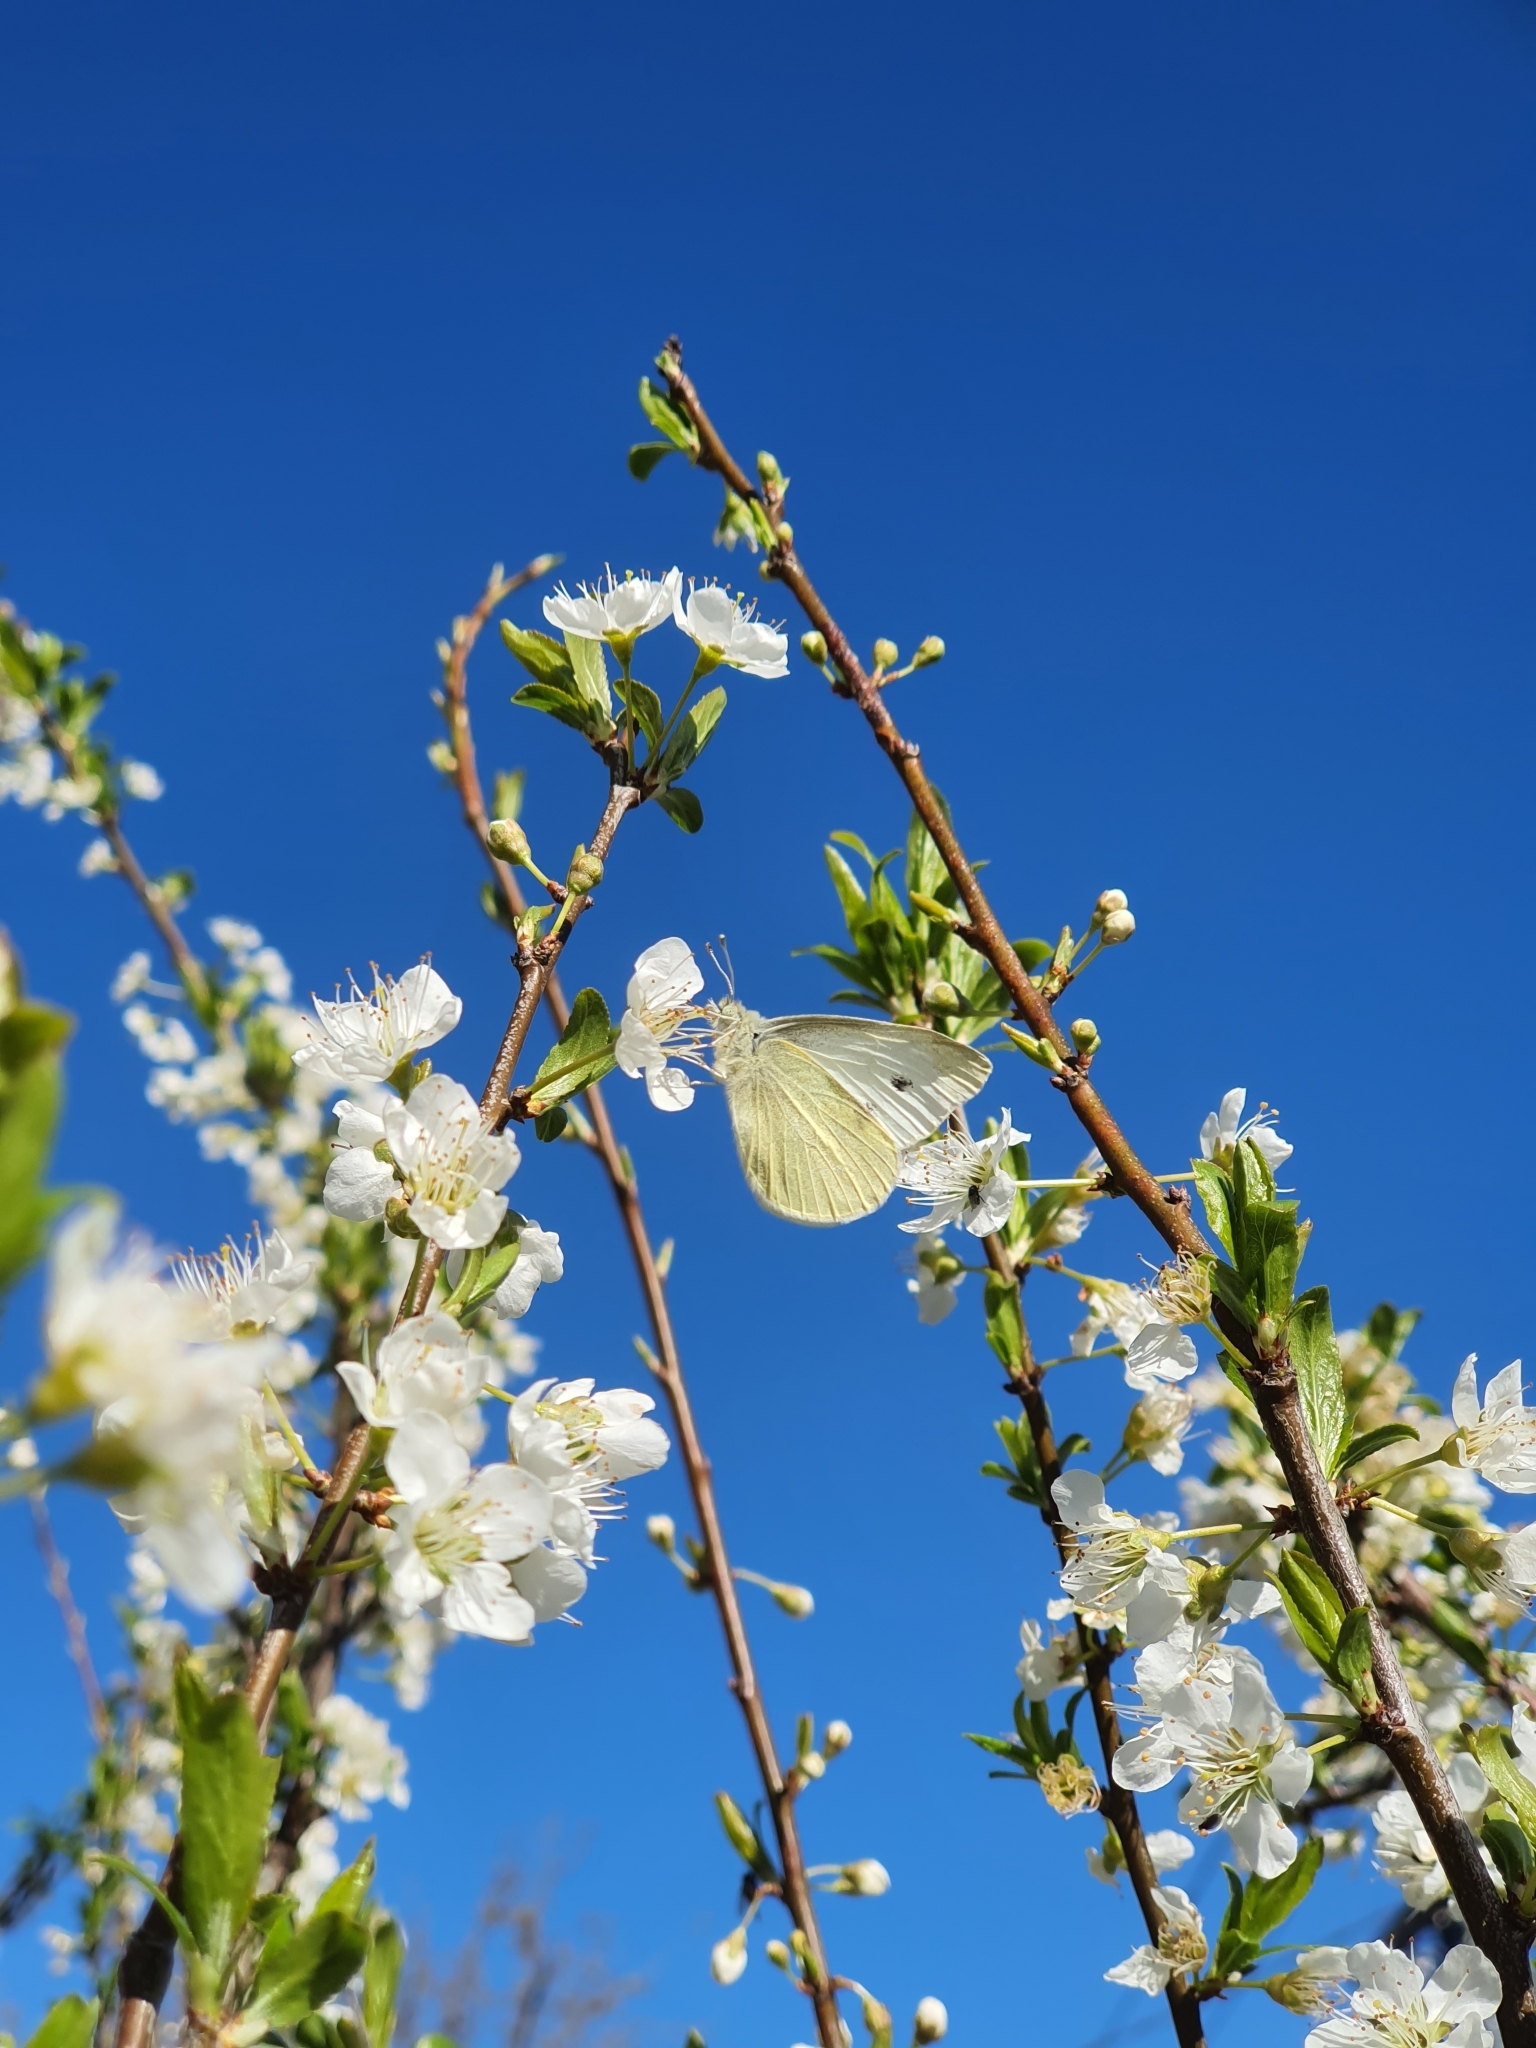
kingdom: Animalia
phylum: Arthropoda
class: Insecta
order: Lepidoptera
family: Pieridae
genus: Pieris
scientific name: Pieris rapae
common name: Small white
